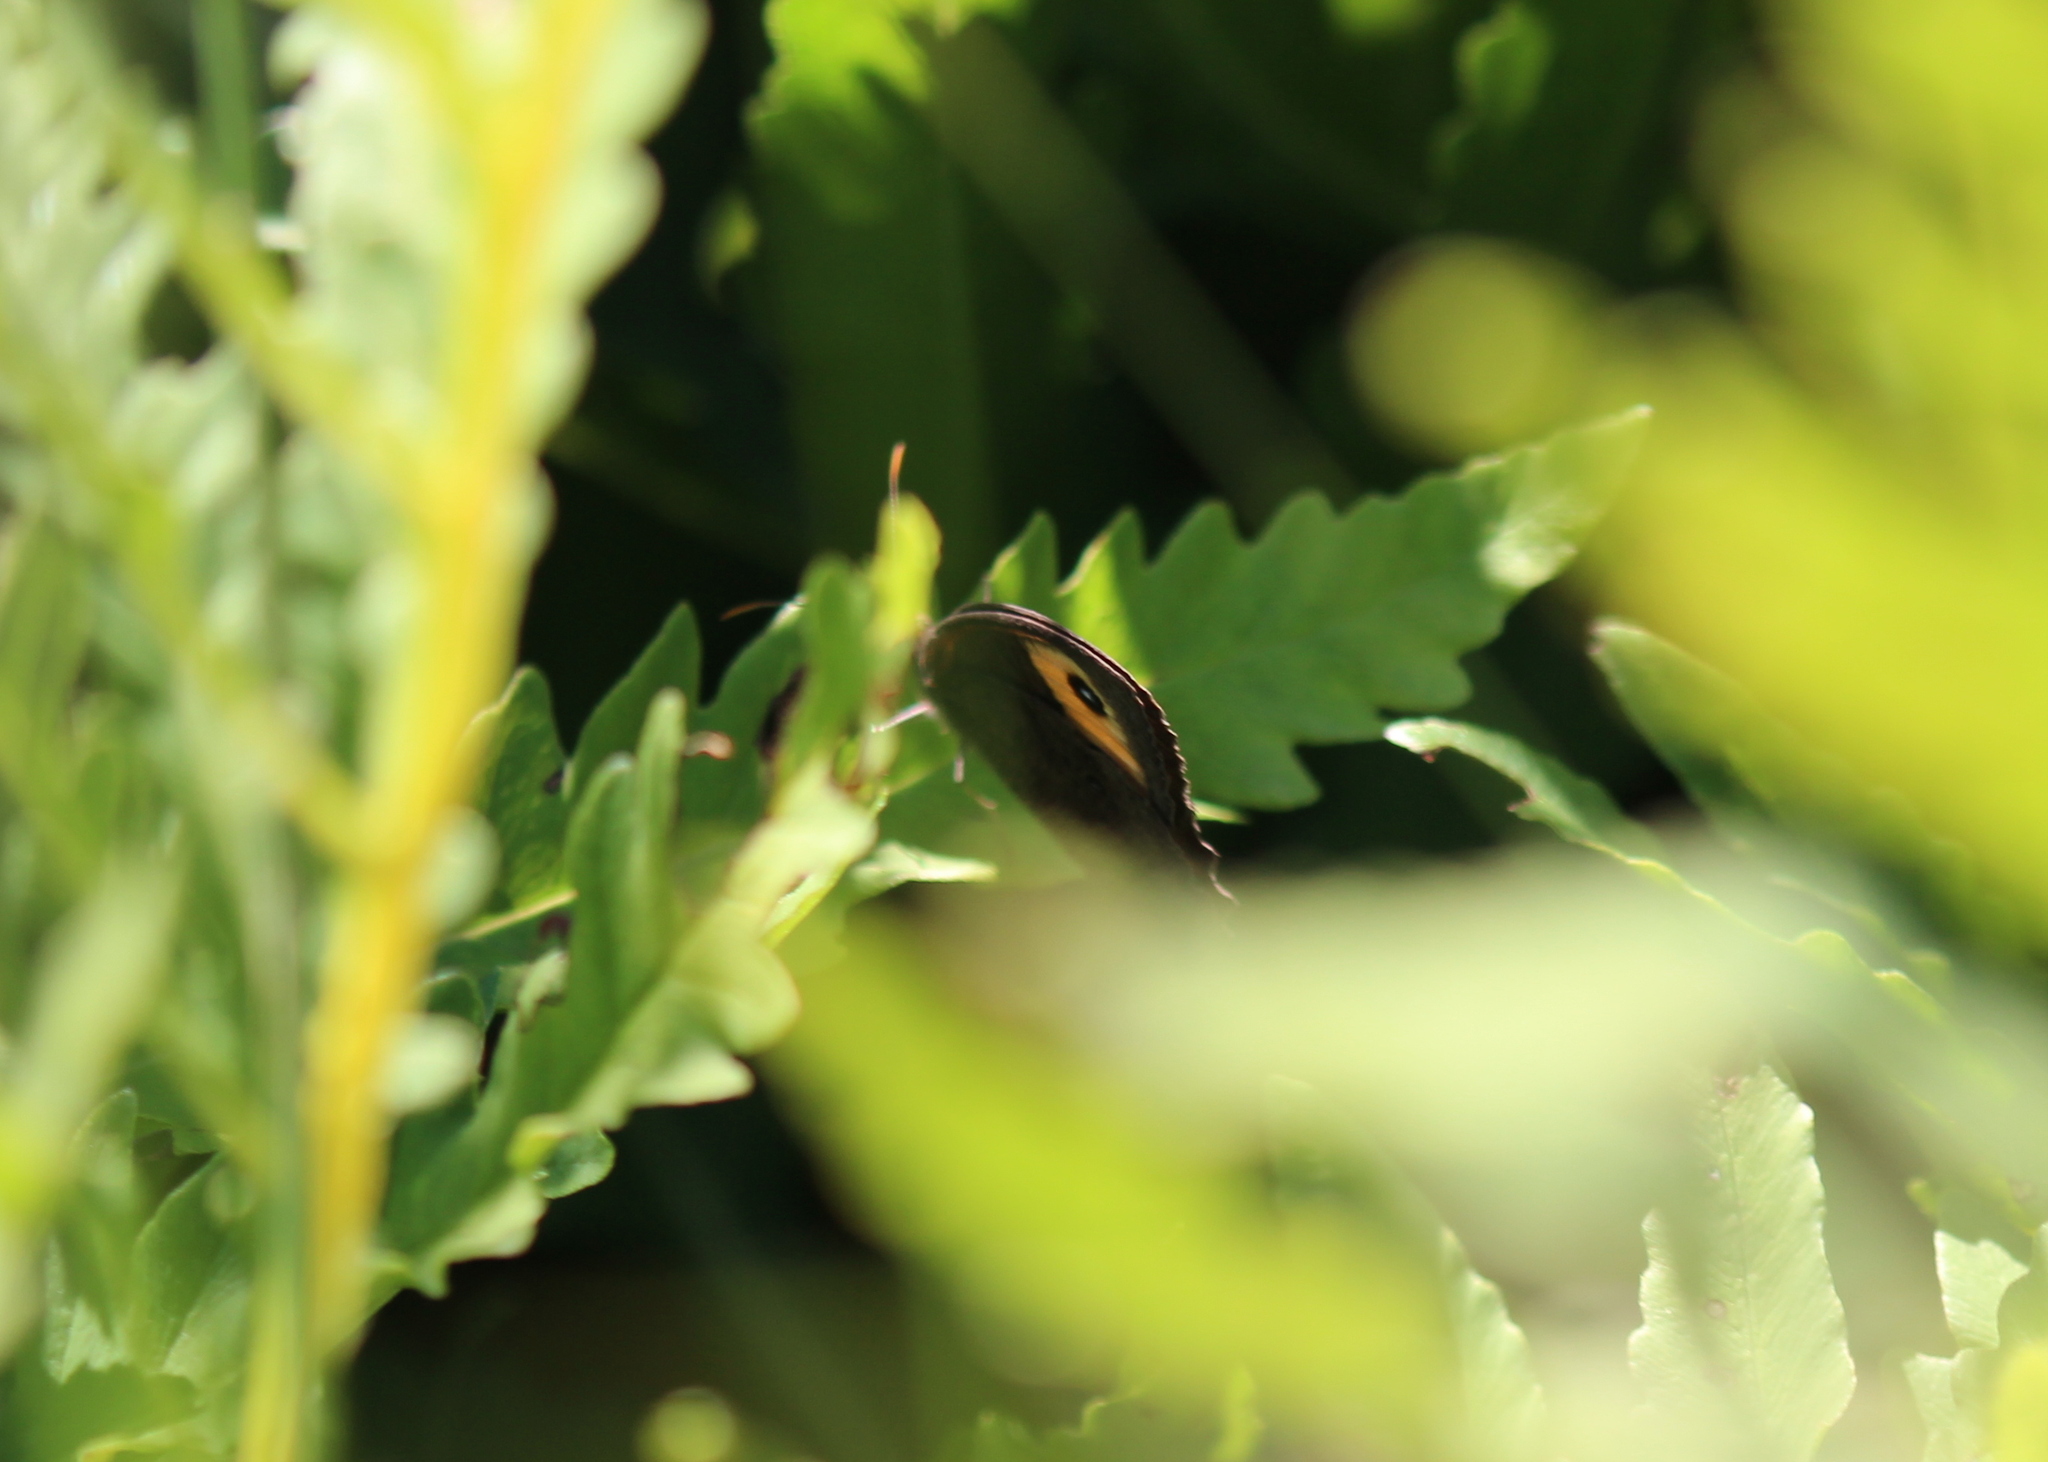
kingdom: Animalia
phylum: Arthropoda
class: Insecta
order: Lepidoptera
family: Nymphalidae
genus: Cercyonis
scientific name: Cercyonis pegala
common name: Common wood-nymph
